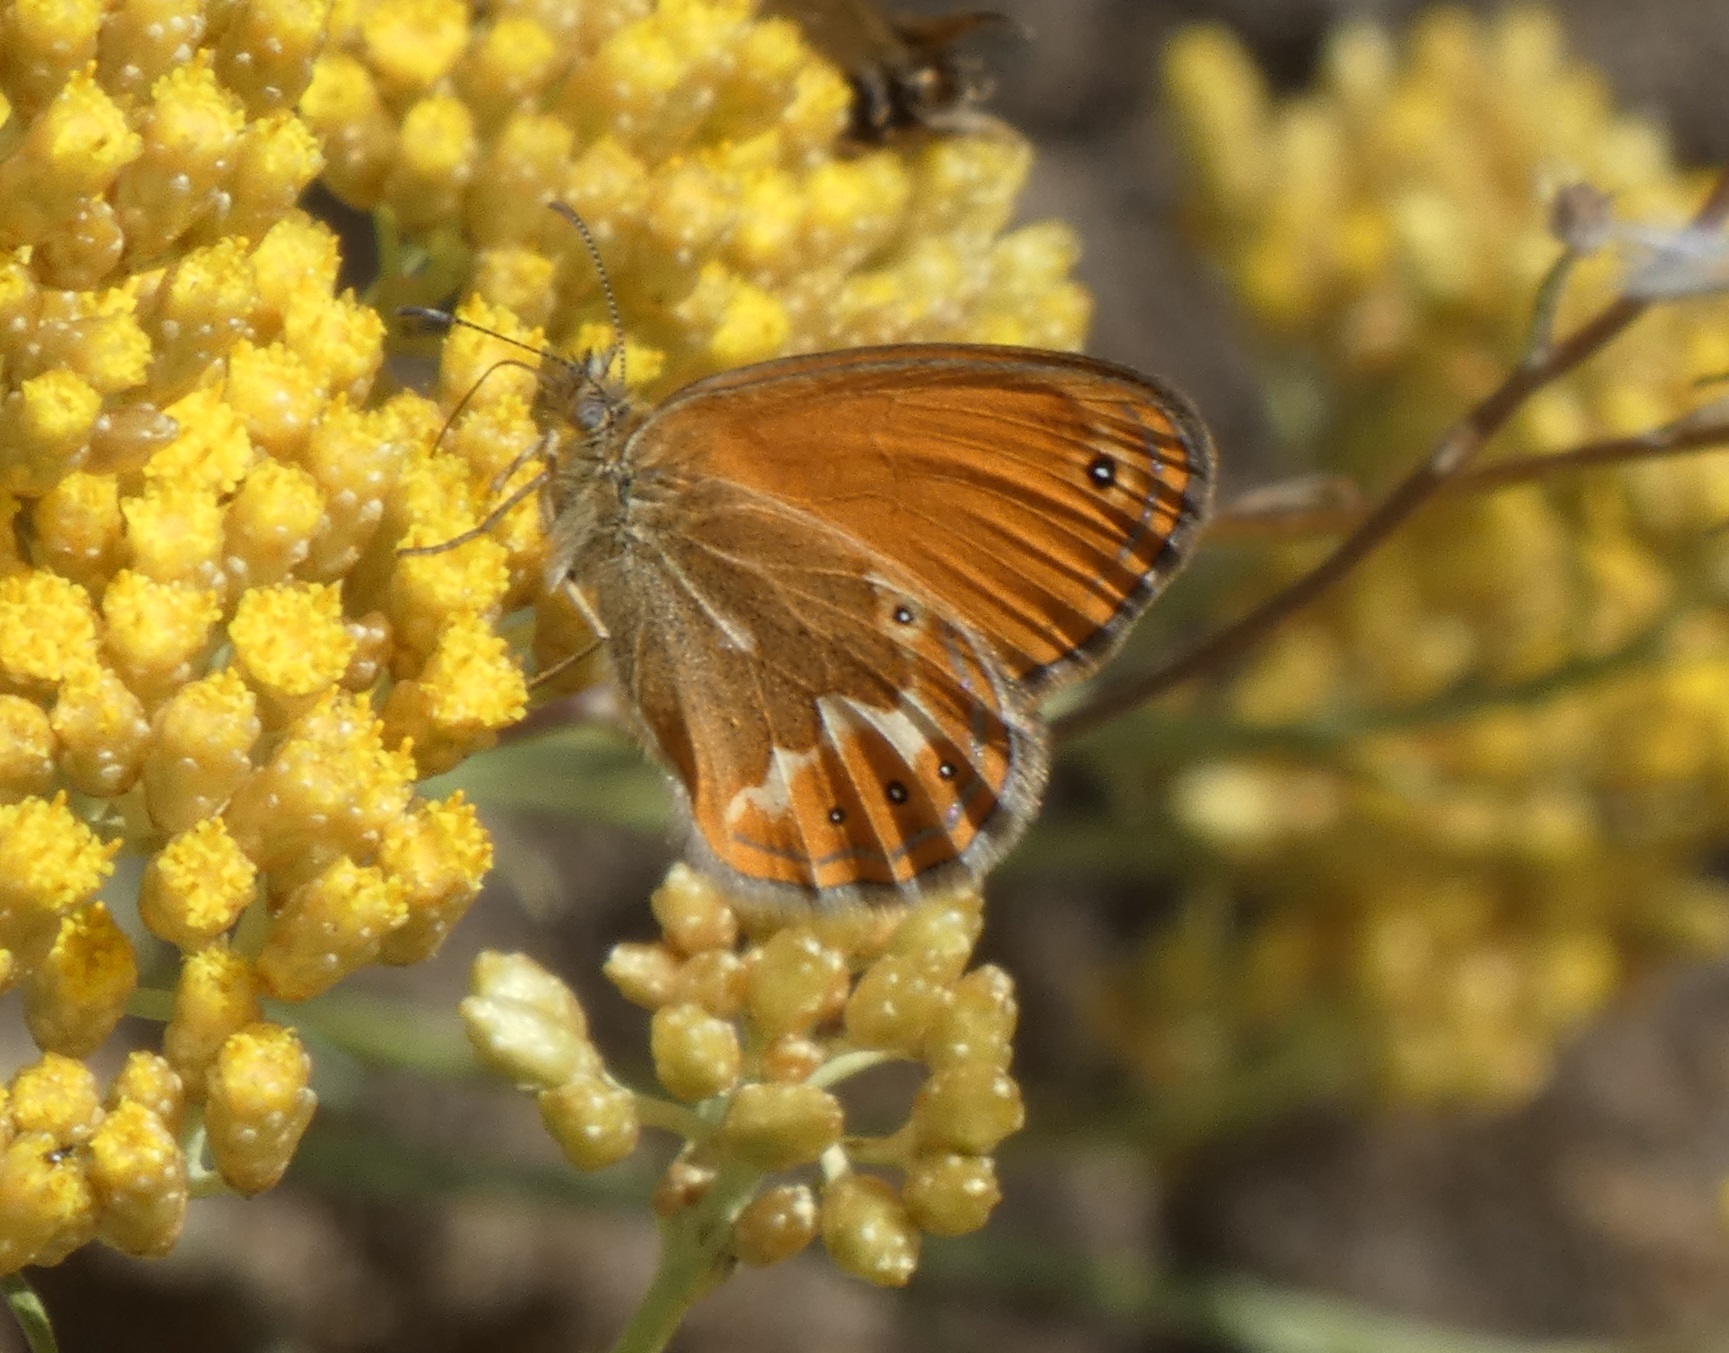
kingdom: Animalia
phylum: Arthropoda
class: Insecta
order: Lepidoptera
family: Nymphalidae
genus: Coenonympha
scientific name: Coenonympha corinna
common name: Corsican heath
